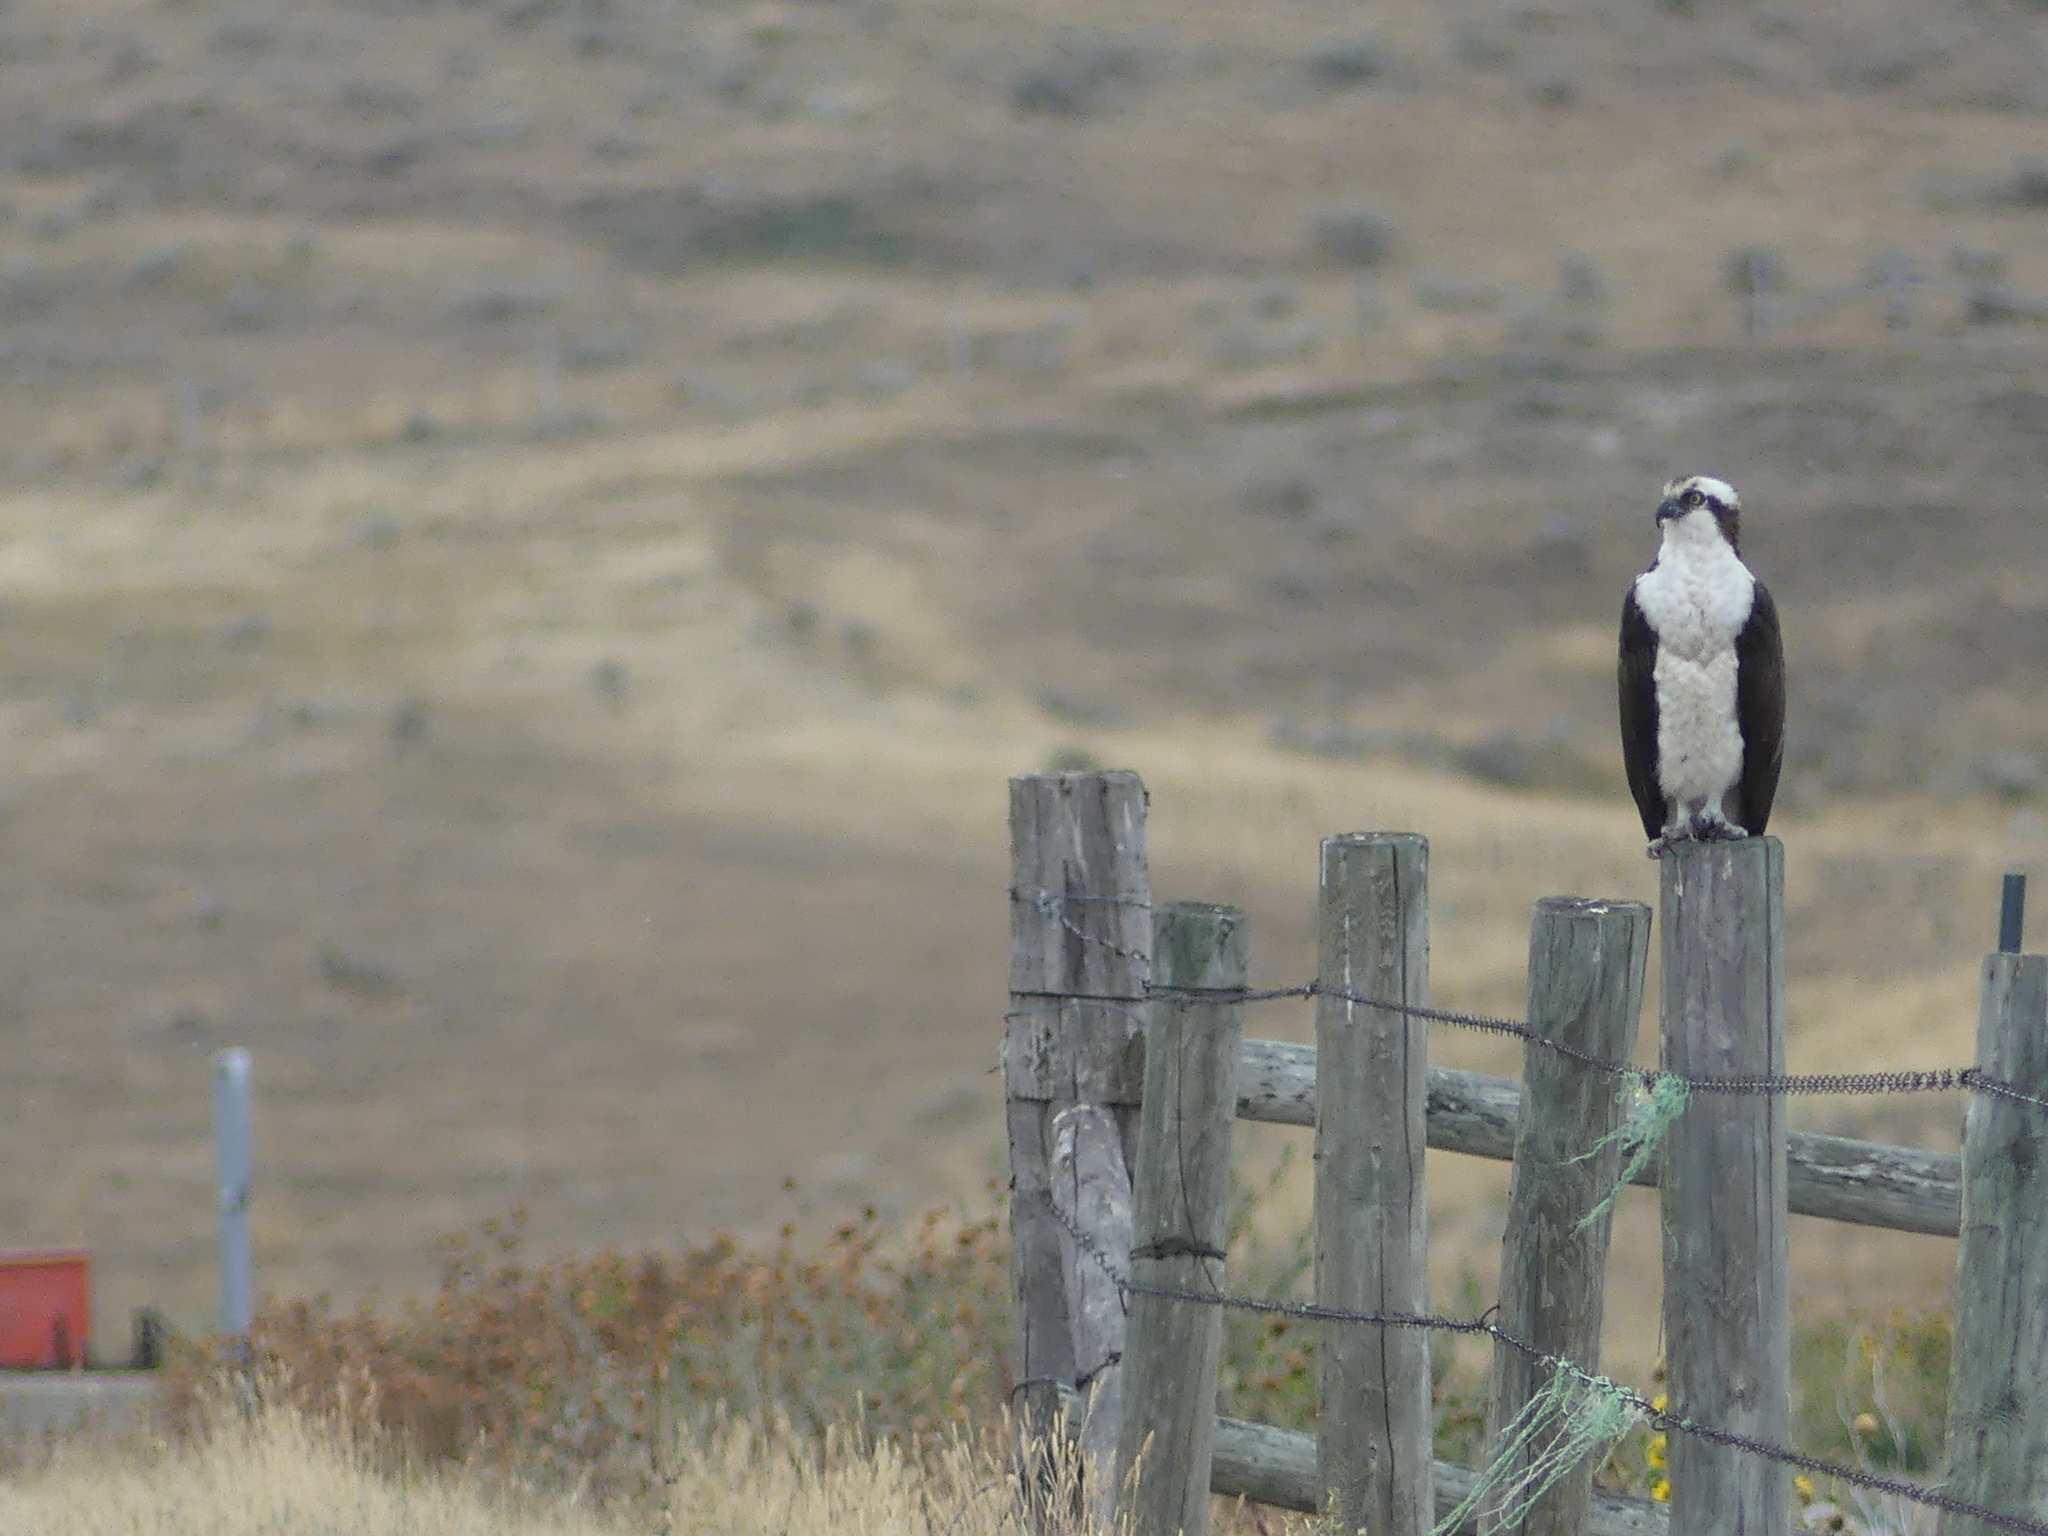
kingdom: Animalia
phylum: Chordata
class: Aves
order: Accipitriformes
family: Pandionidae
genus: Pandion
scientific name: Pandion haliaetus
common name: Osprey
